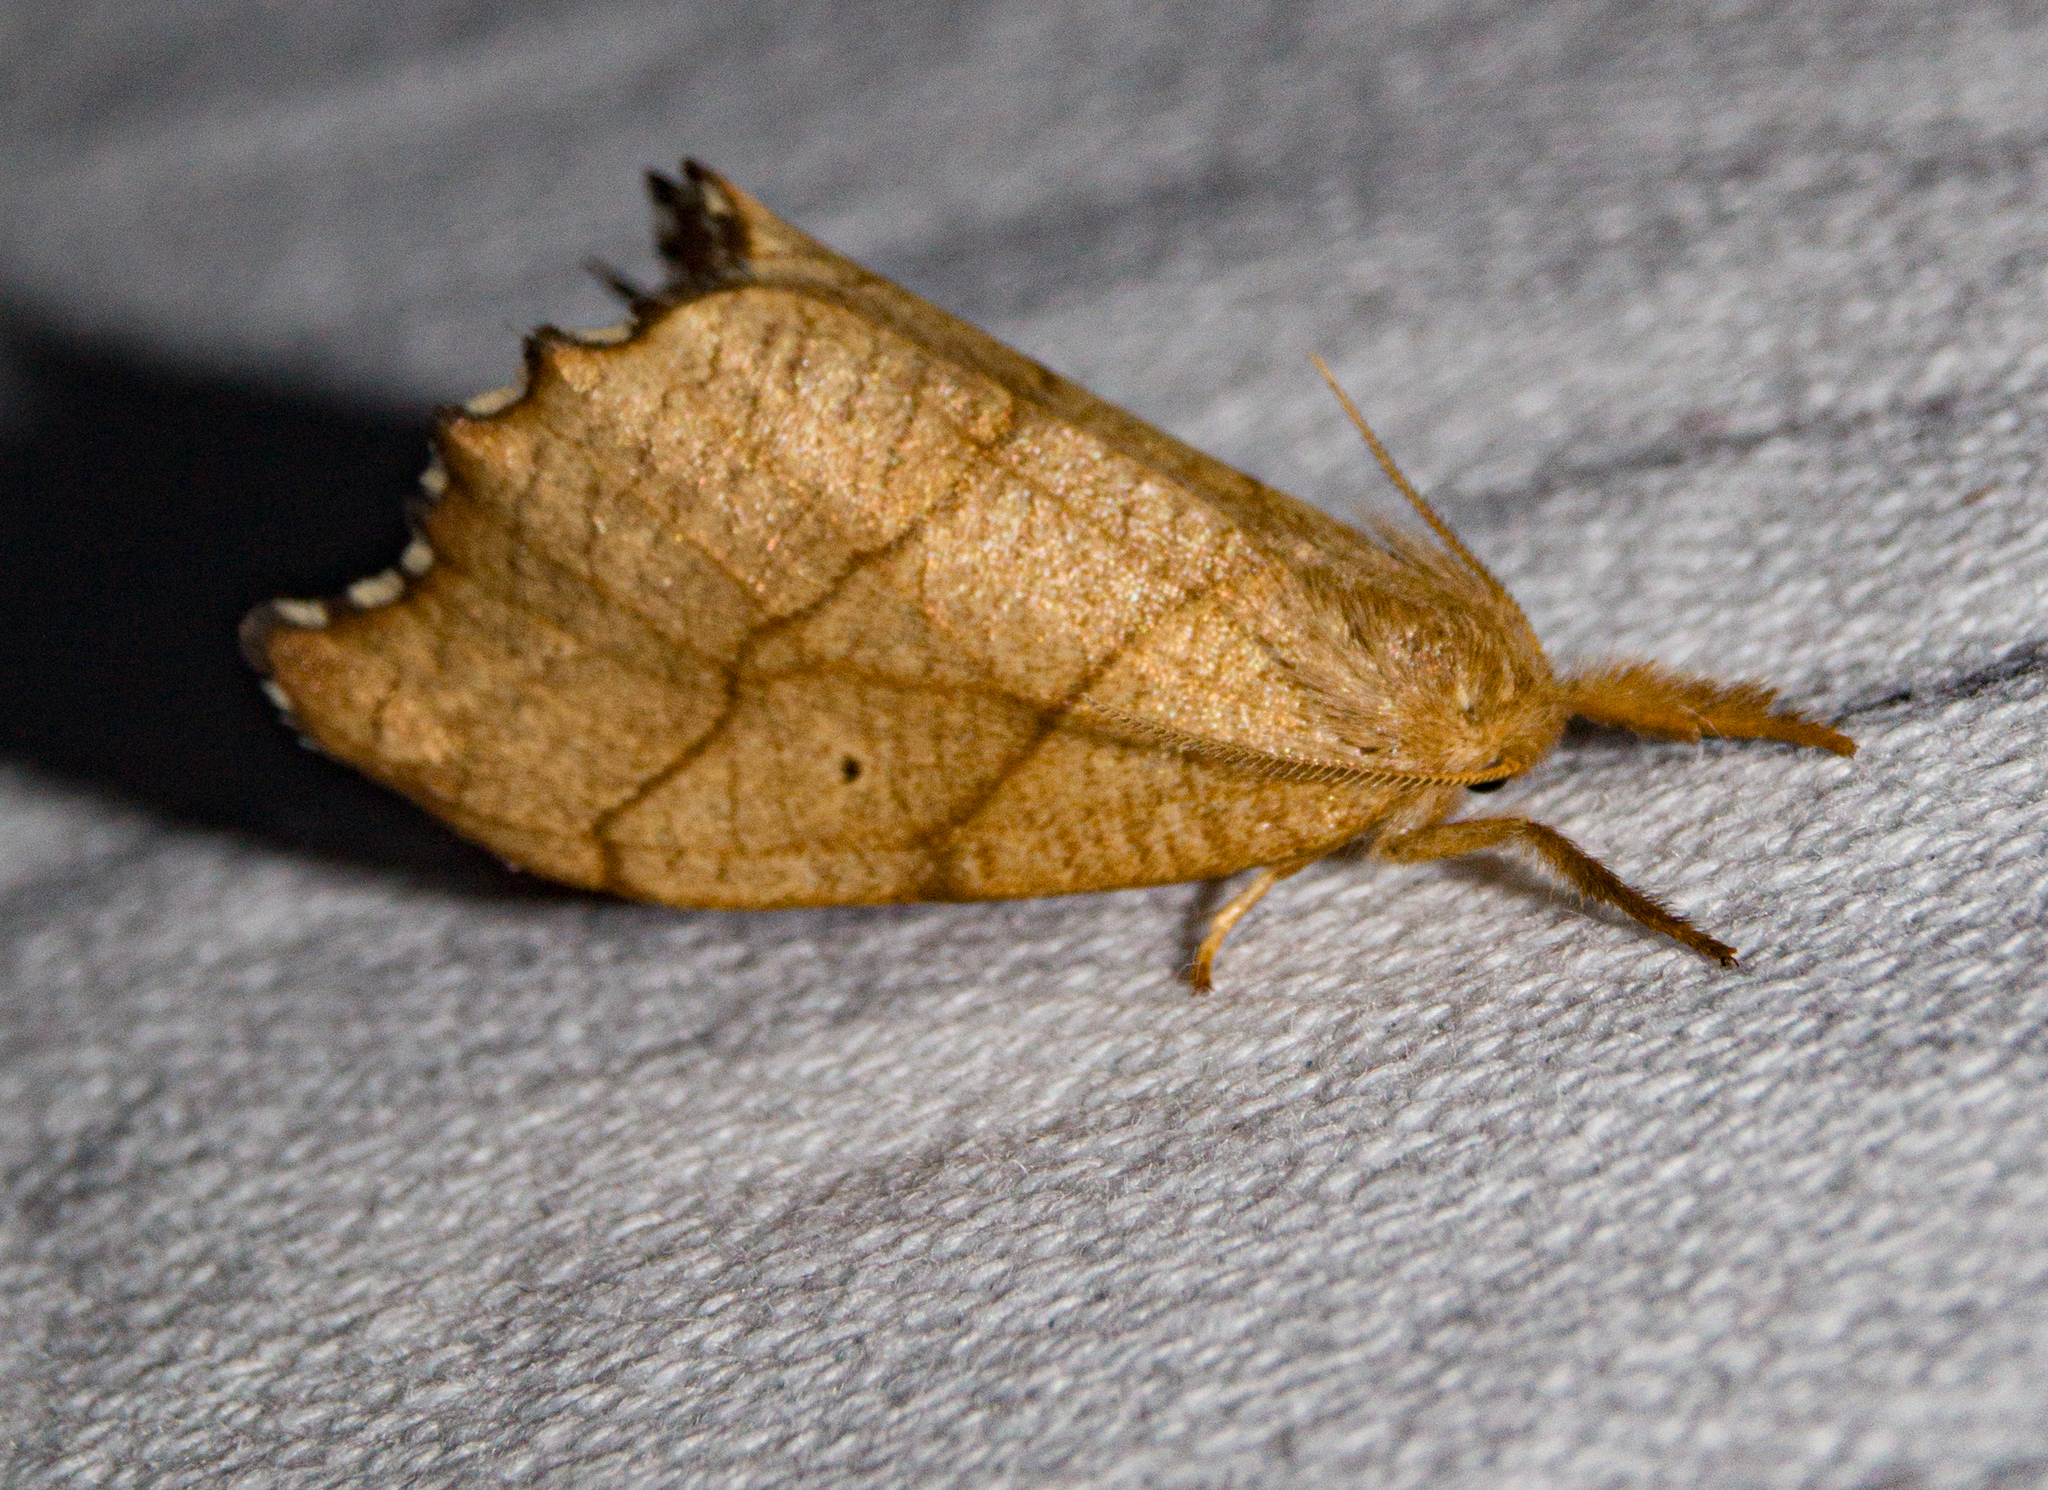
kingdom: Animalia
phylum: Arthropoda
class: Insecta
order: Lepidoptera
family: Drepanidae
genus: Falcaria
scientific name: Falcaria lacertinaria
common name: Scalloped hook-tip
